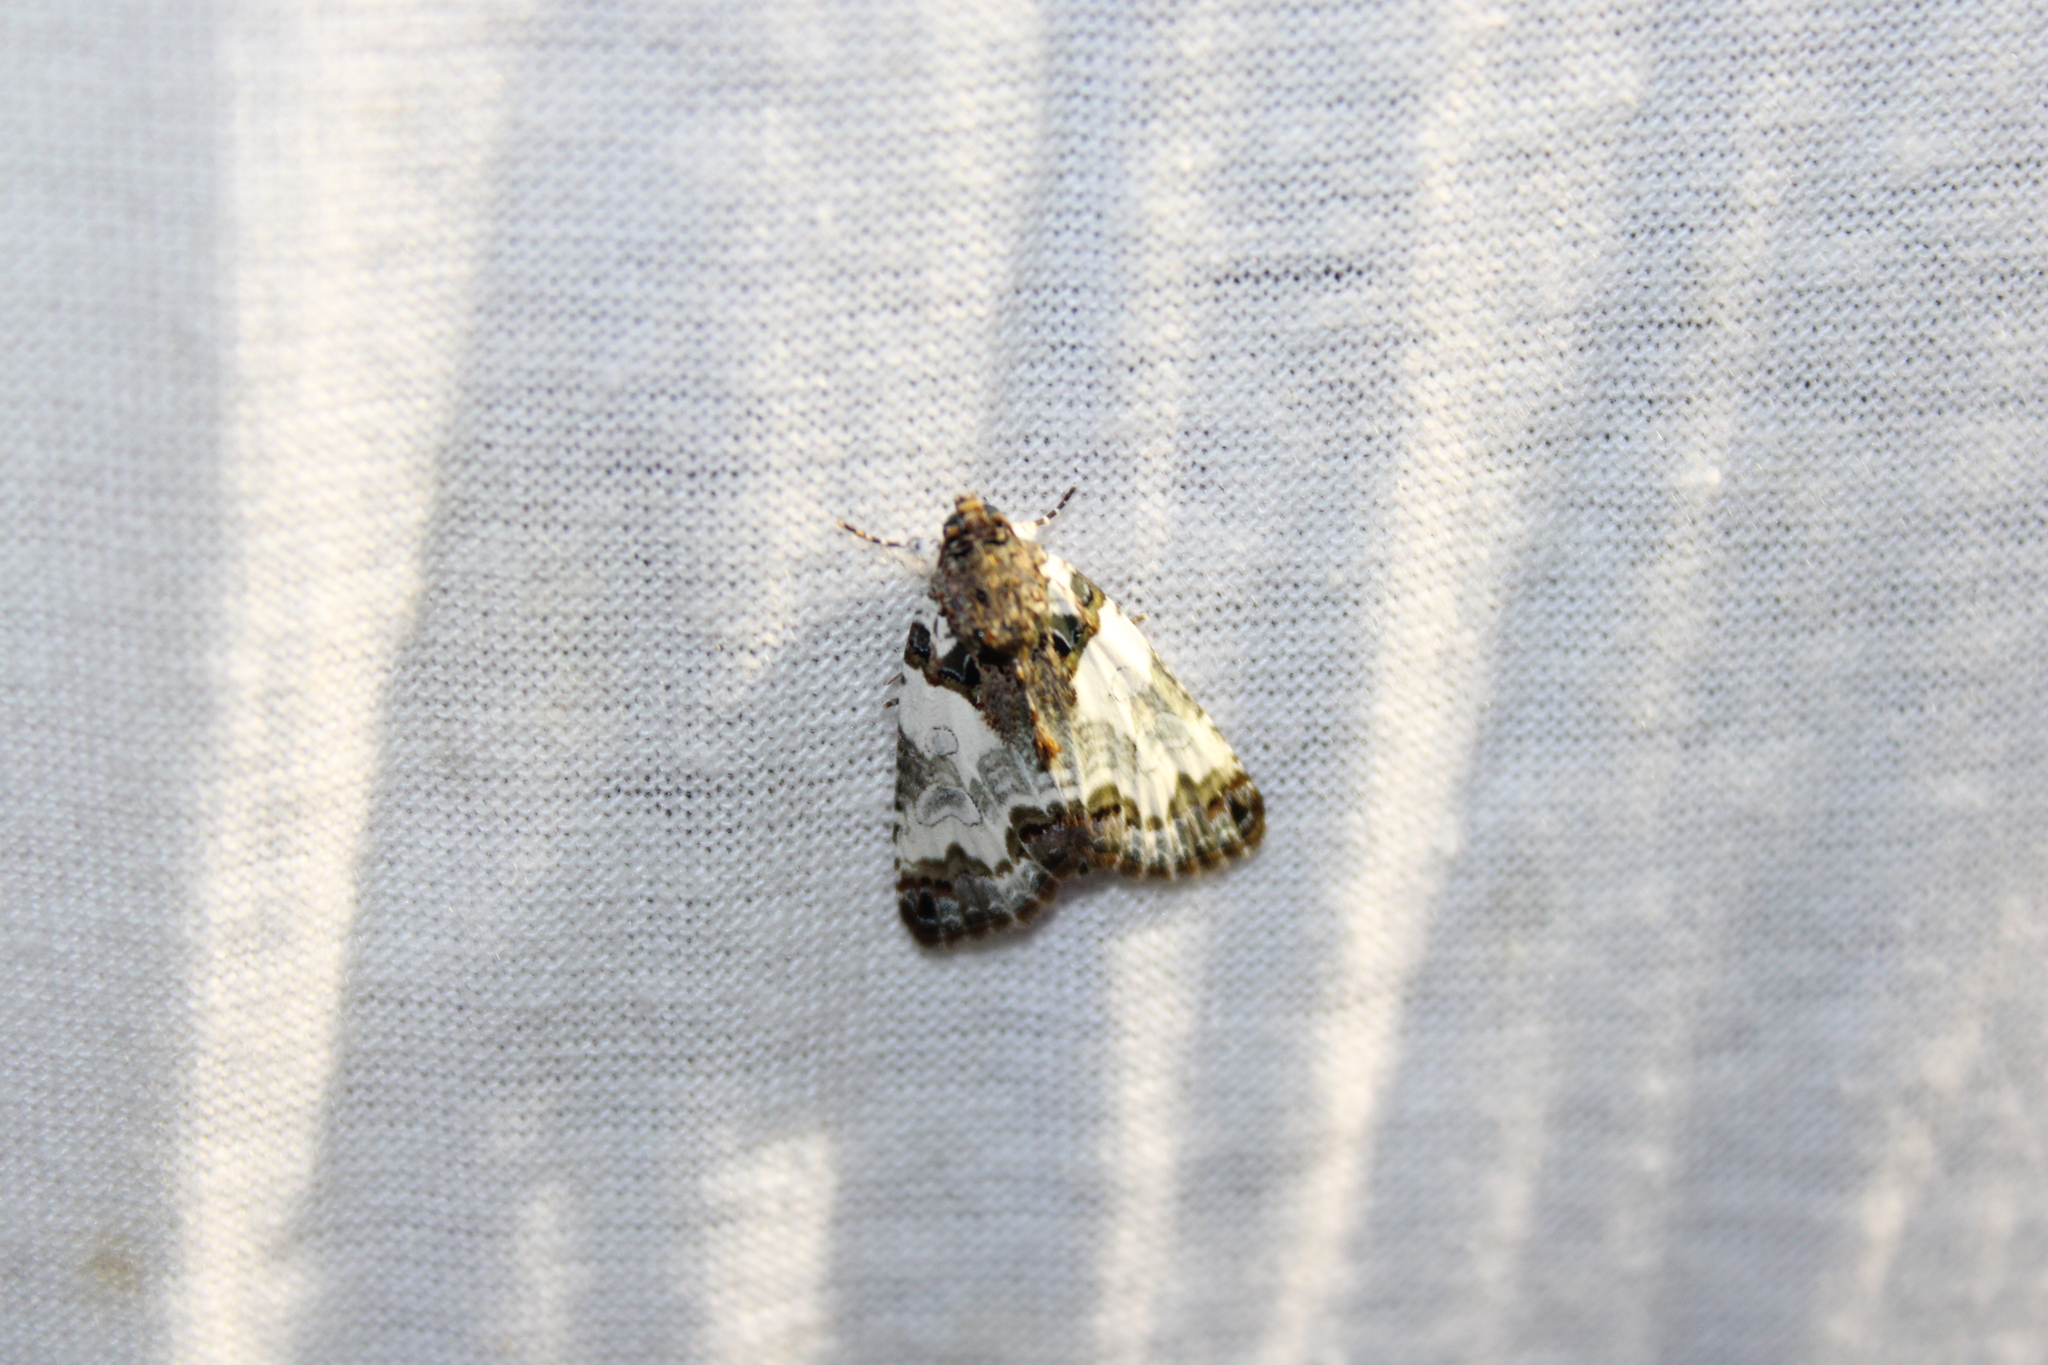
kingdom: Animalia
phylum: Arthropoda
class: Insecta
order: Lepidoptera
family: Noctuidae
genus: Cerma
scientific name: Cerma cerintha
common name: Tufted bird-dropping moth
